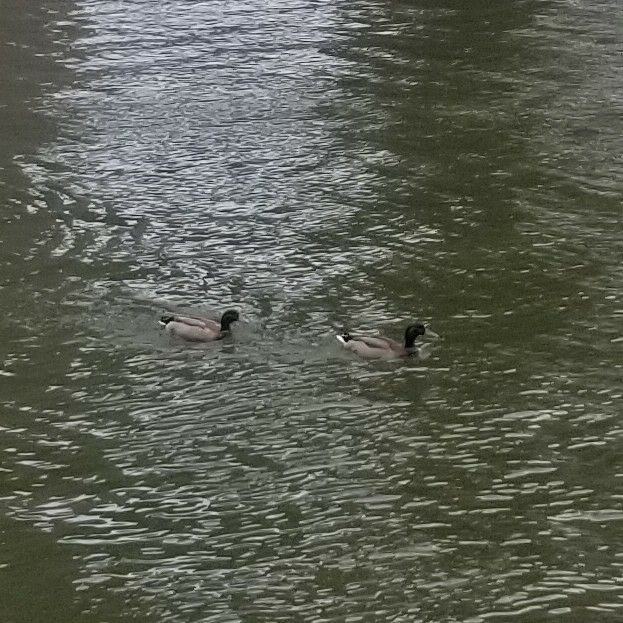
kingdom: Animalia
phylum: Chordata
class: Aves
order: Anseriformes
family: Anatidae
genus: Anas
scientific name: Anas platyrhynchos
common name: Mallard
